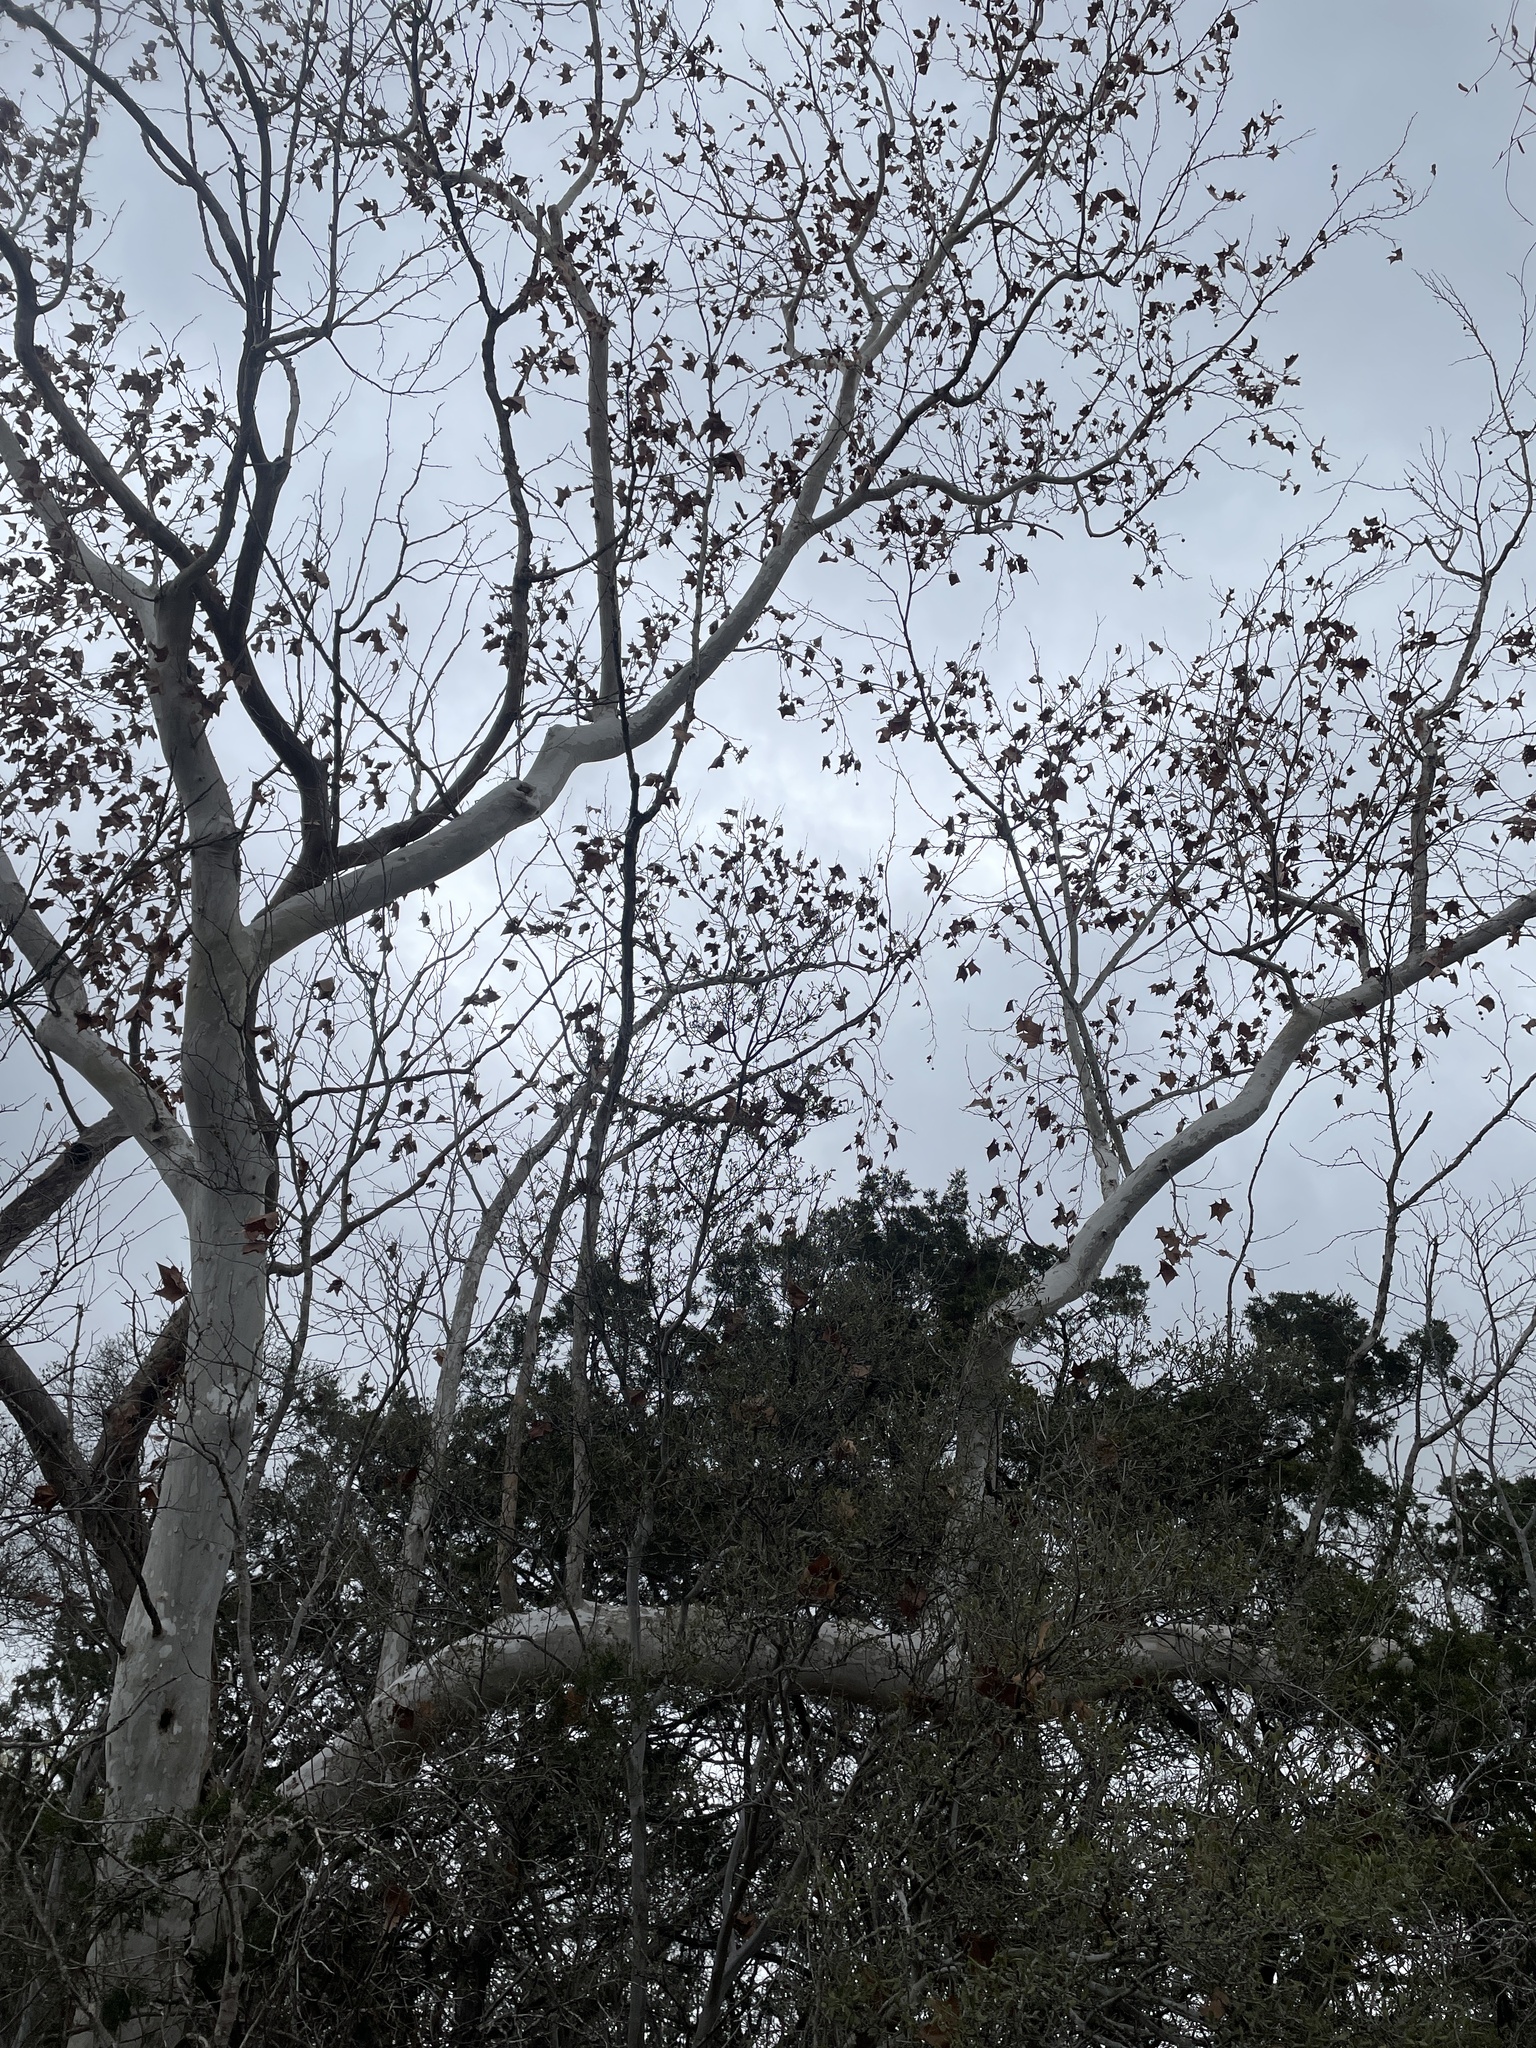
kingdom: Plantae
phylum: Tracheophyta
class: Magnoliopsida
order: Proteales
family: Platanaceae
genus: Platanus
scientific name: Platanus occidentalis
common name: American sycamore
